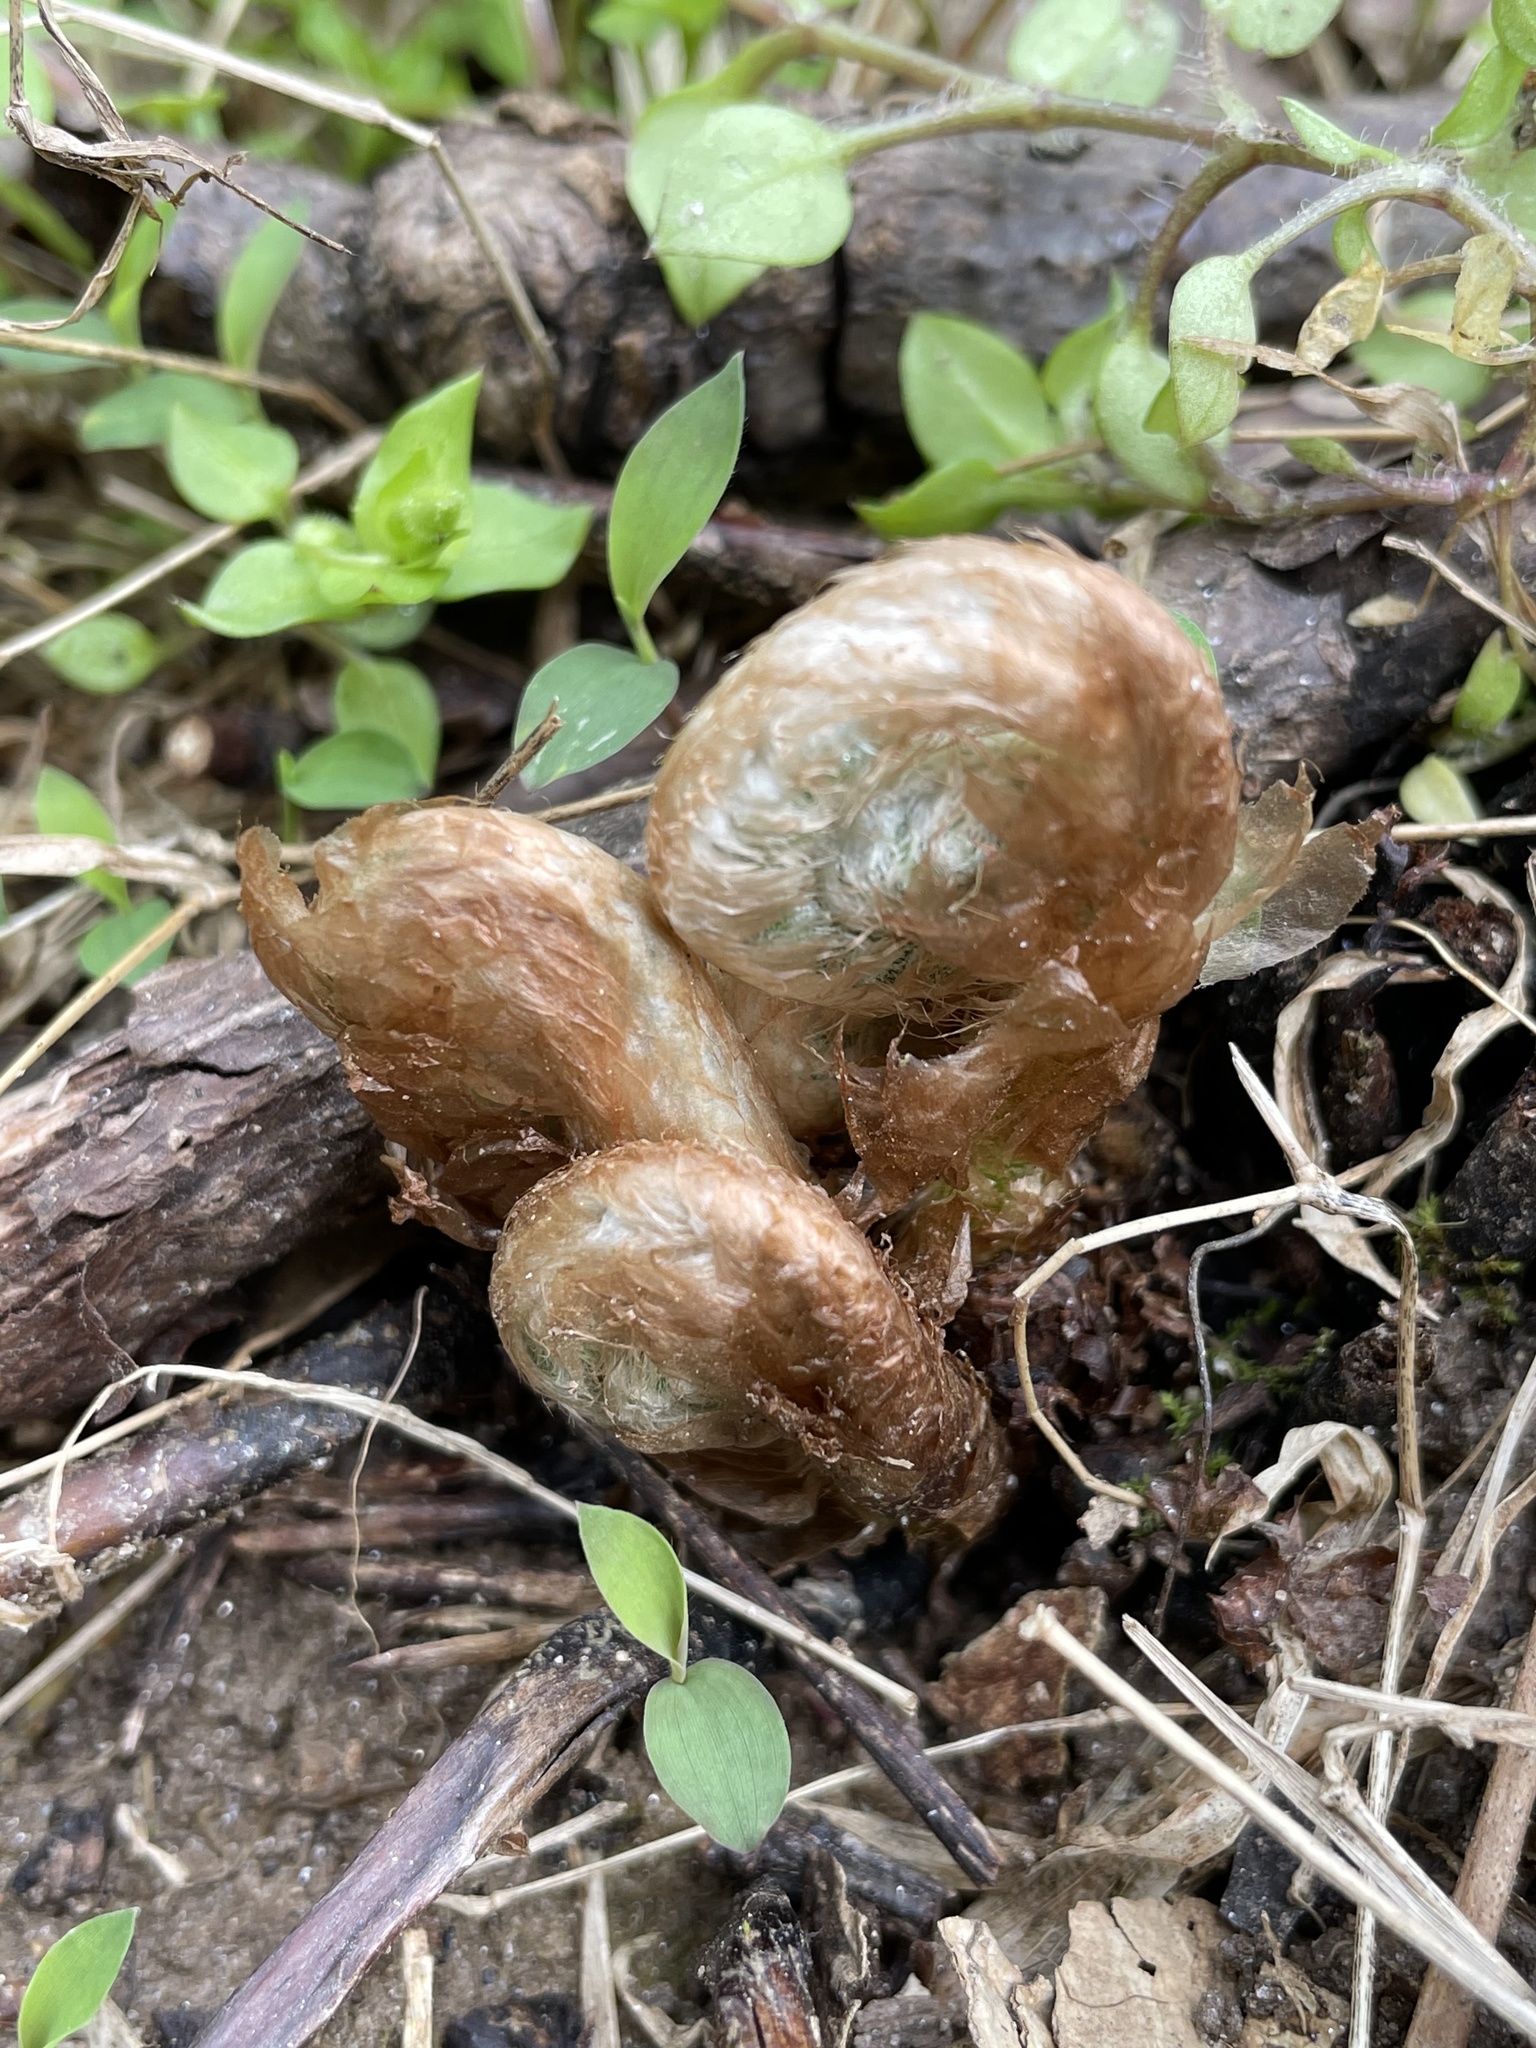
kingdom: Plantae
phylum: Tracheophyta
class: Polypodiopsida
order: Polypodiales
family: Dryopteridaceae
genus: Polystichum
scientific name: Polystichum acrostichoides
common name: Christmas fern
